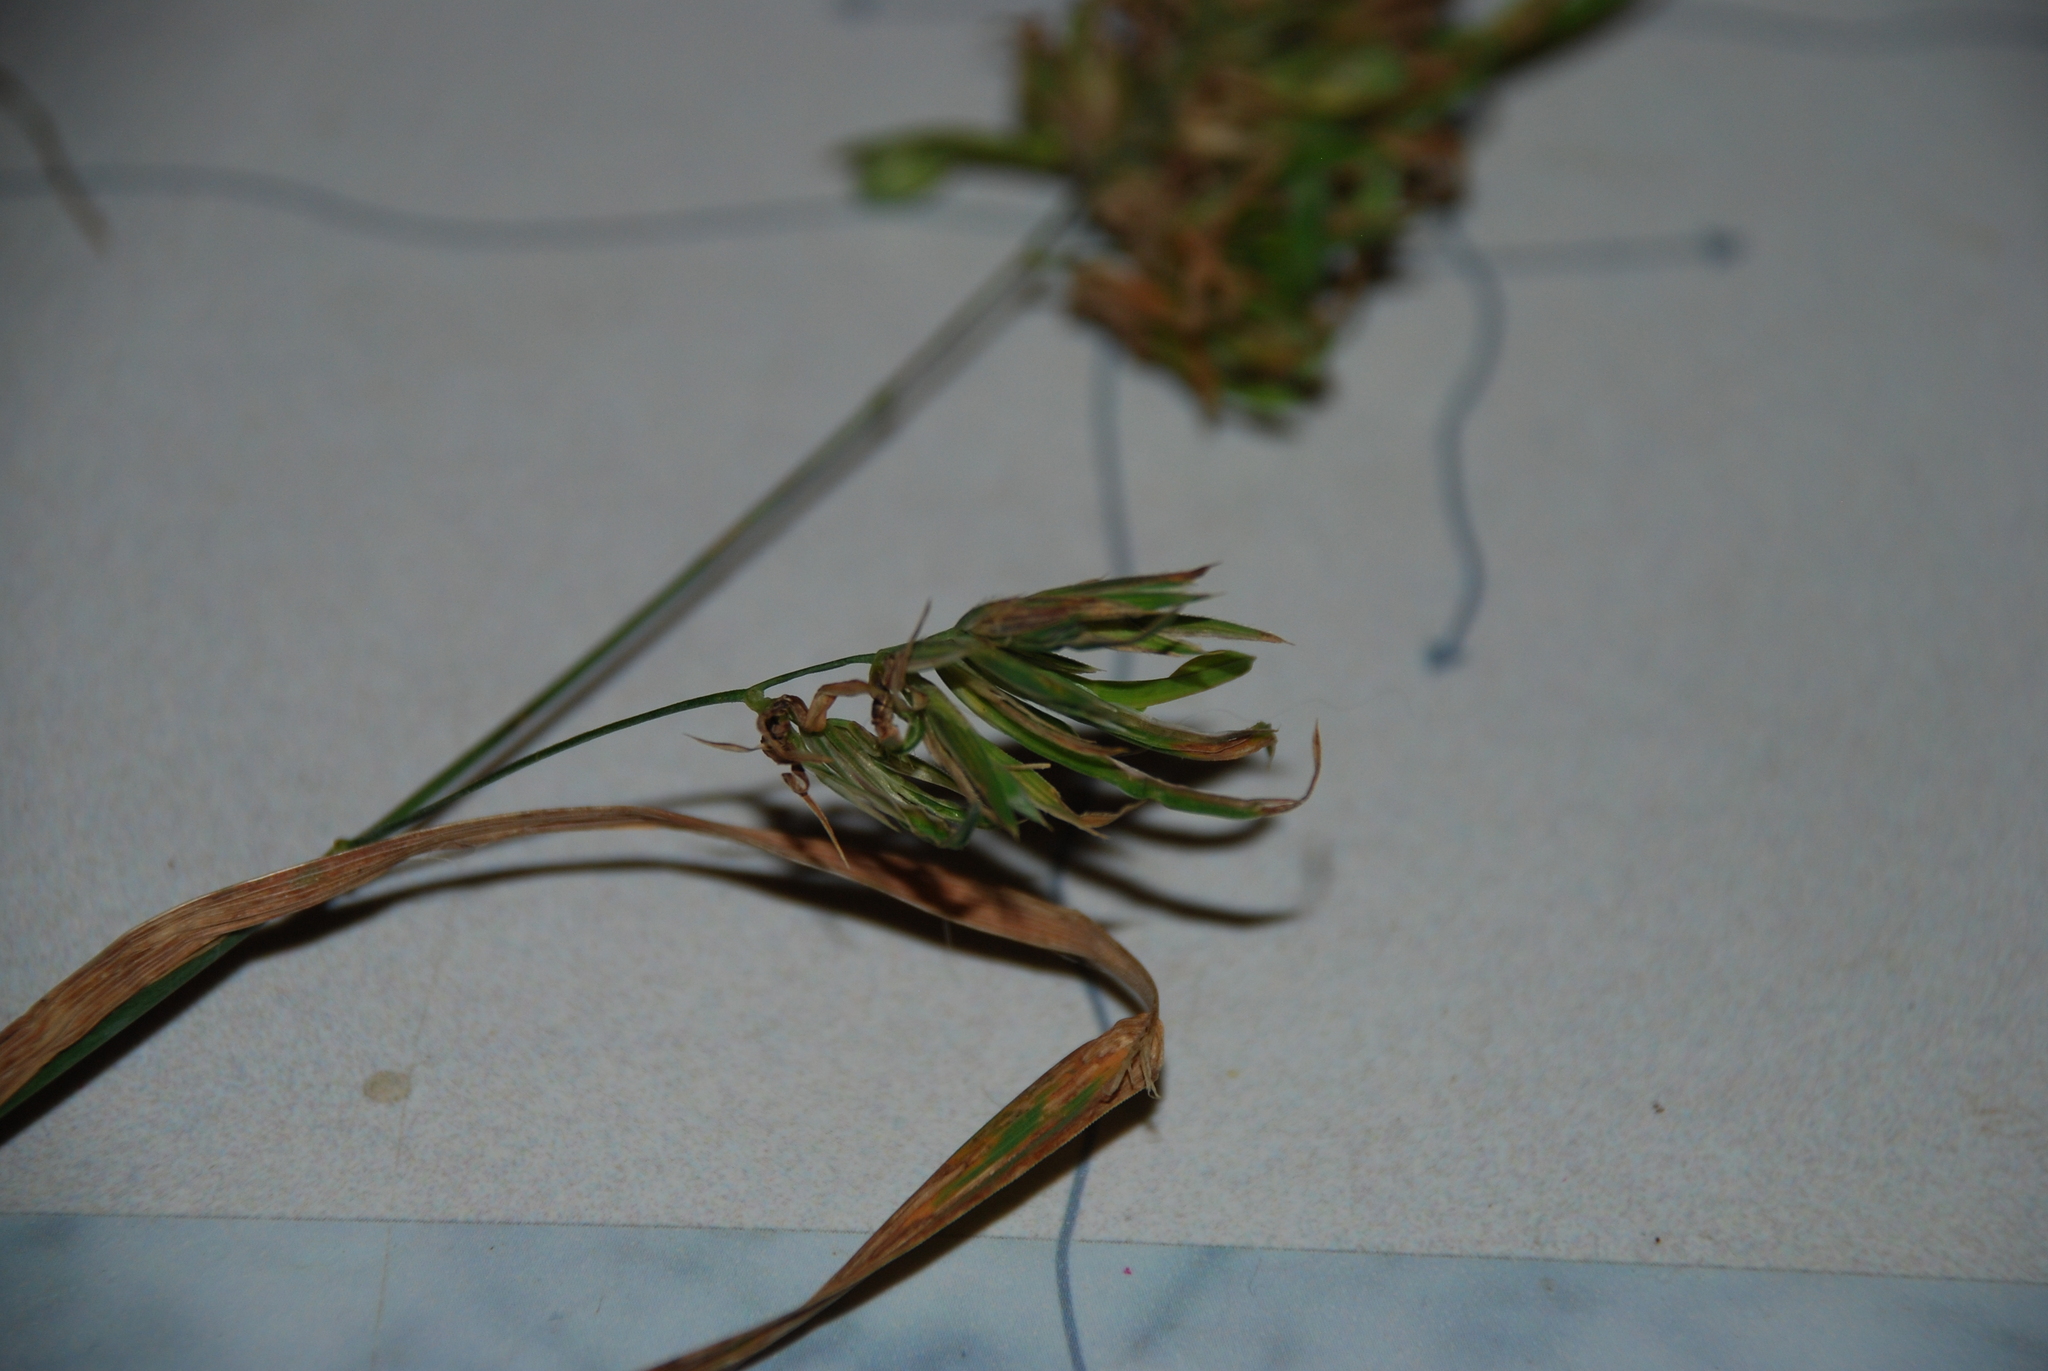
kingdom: Plantae
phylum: Tracheophyta
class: Liliopsida
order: Poales
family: Poaceae
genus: Dactylis
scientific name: Dactylis glomerata
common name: Orchardgrass
